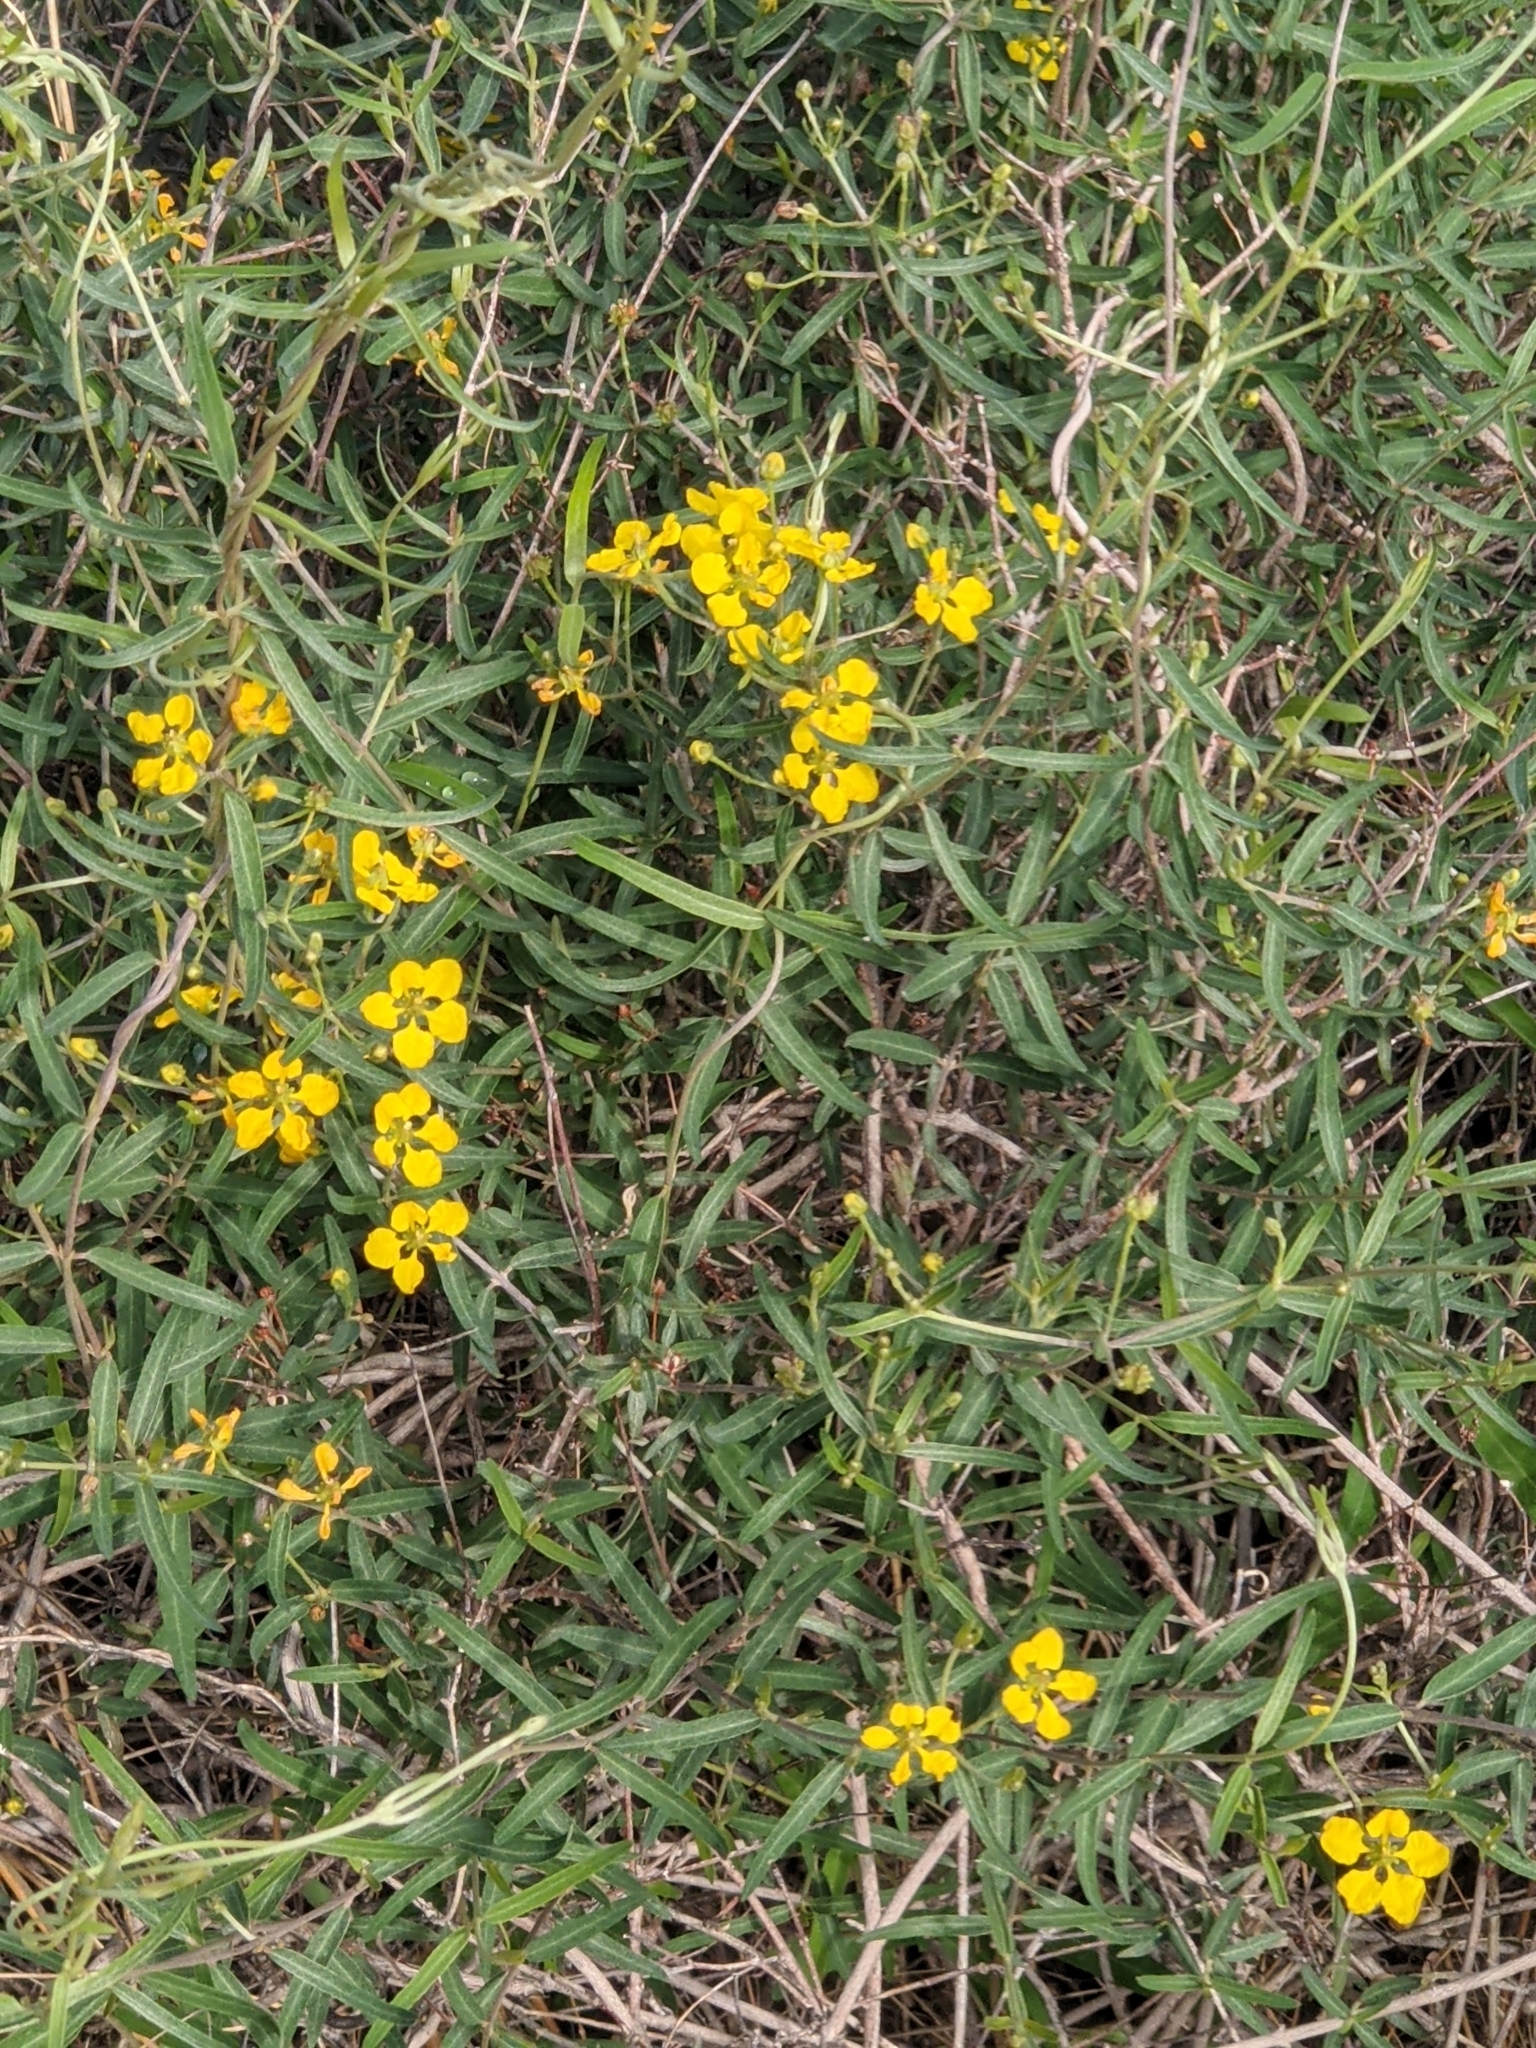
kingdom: Plantae
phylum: Tracheophyta
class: Magnoliopsida
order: Malpighiales
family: Malpighiaceae
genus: Cottsia
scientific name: Cottsia gracilis
